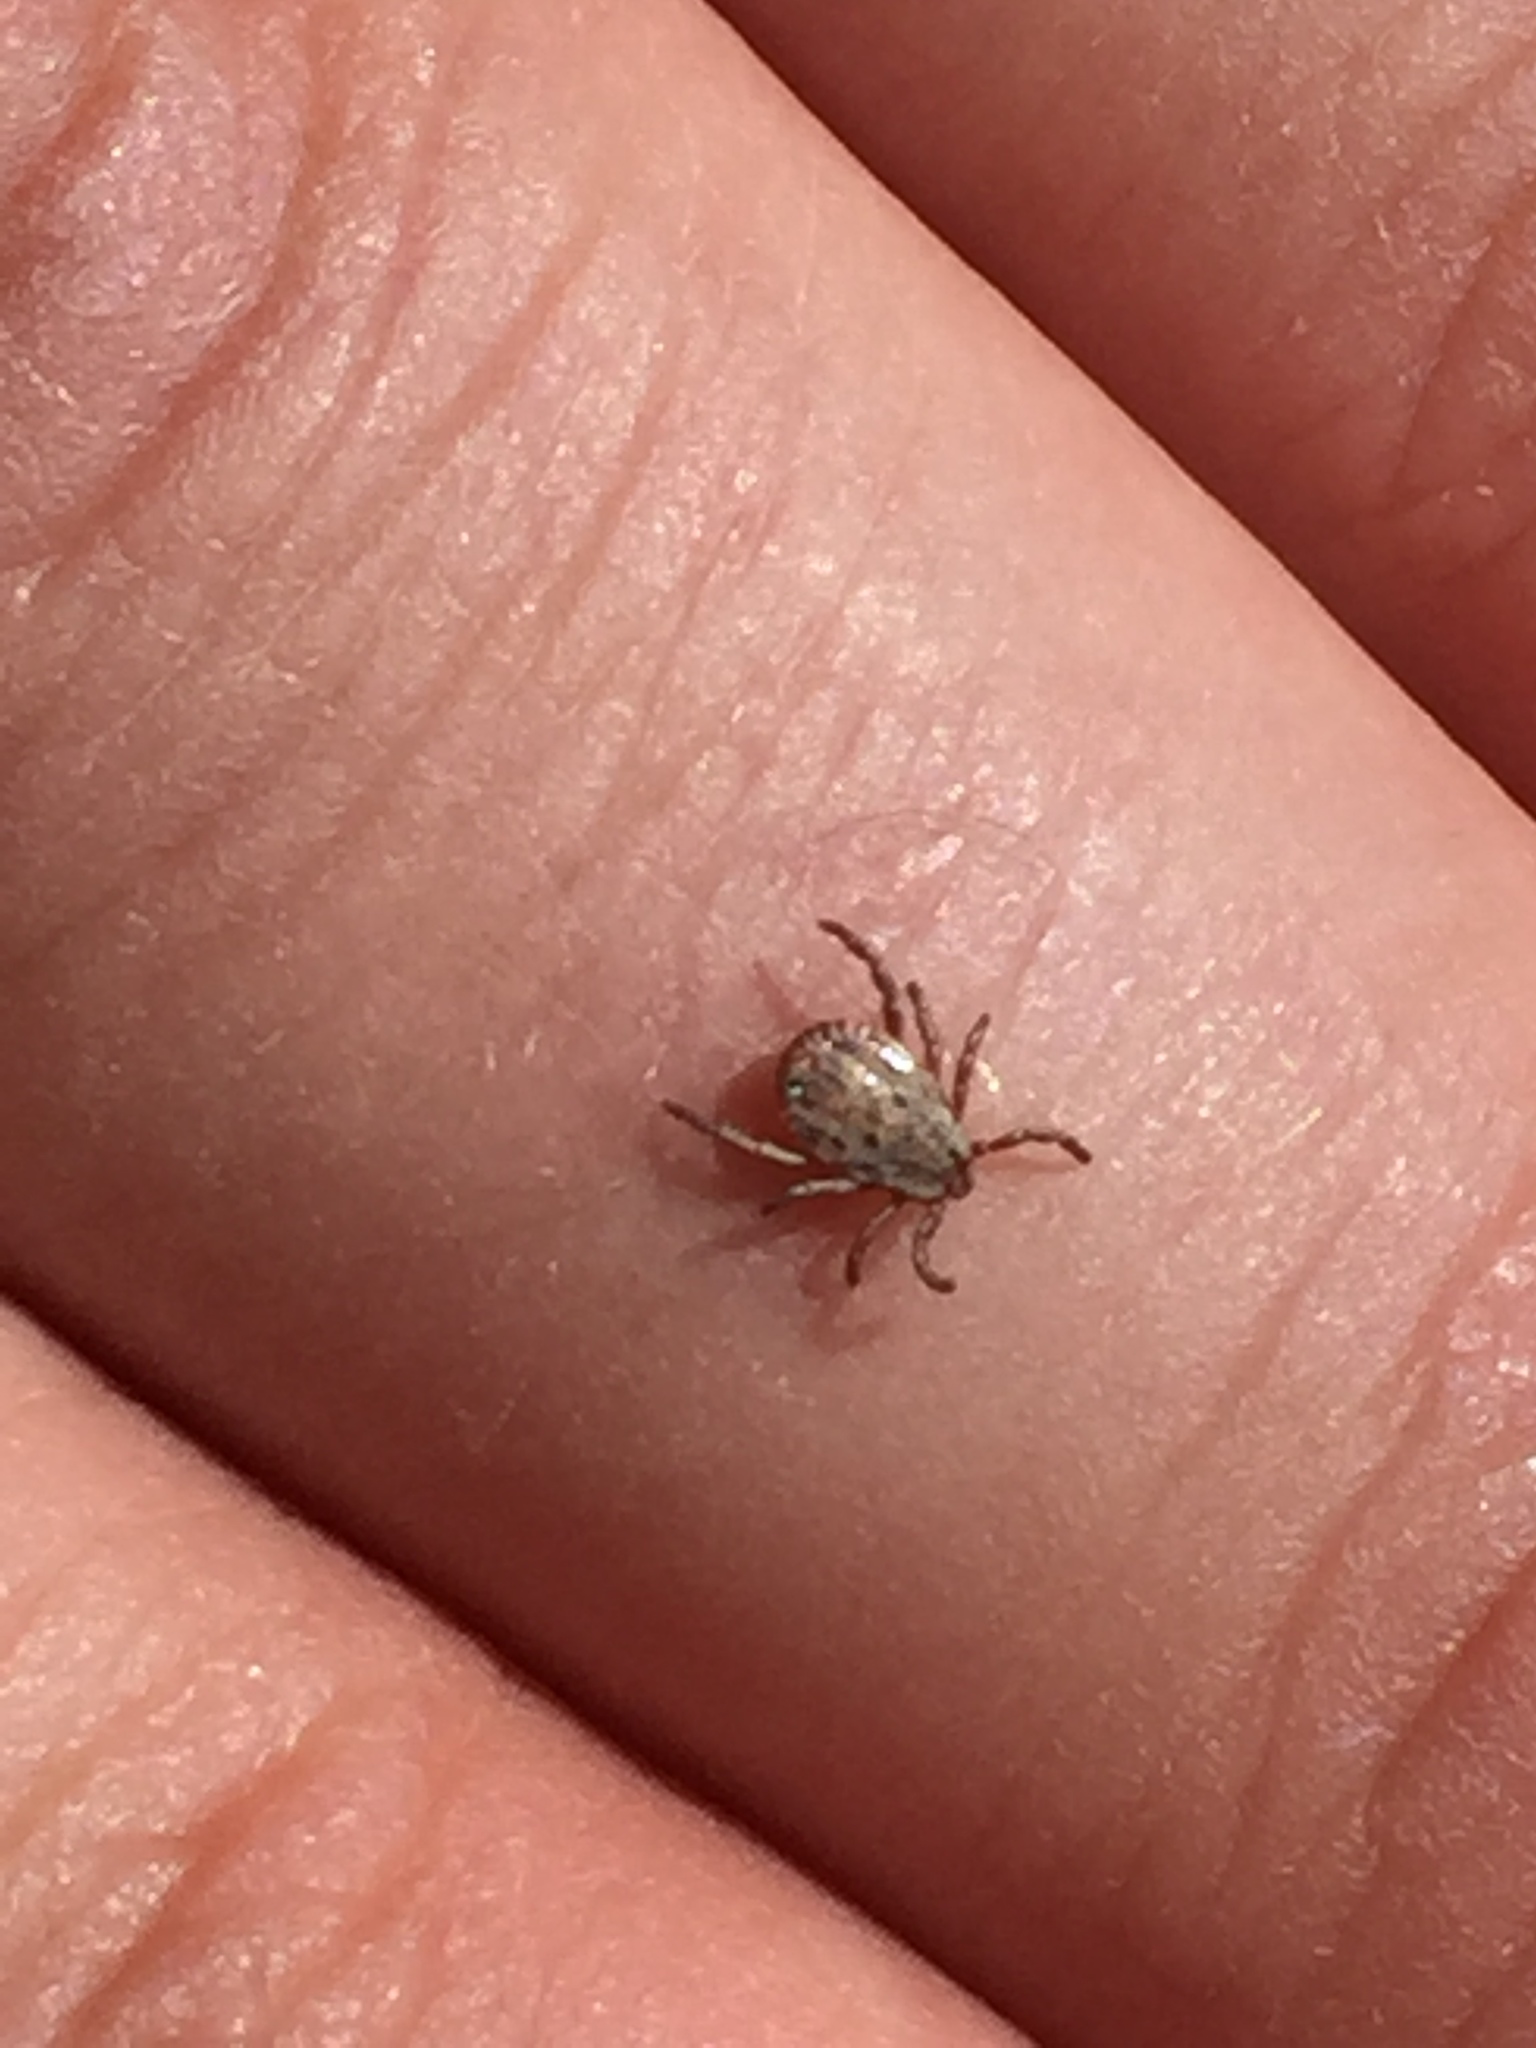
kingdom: Animalia
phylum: Arthropoda
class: Arachnida
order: Ixodida
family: Ixodidae
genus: Dermacentor
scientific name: Dermacentor occidentalis
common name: Net tick
